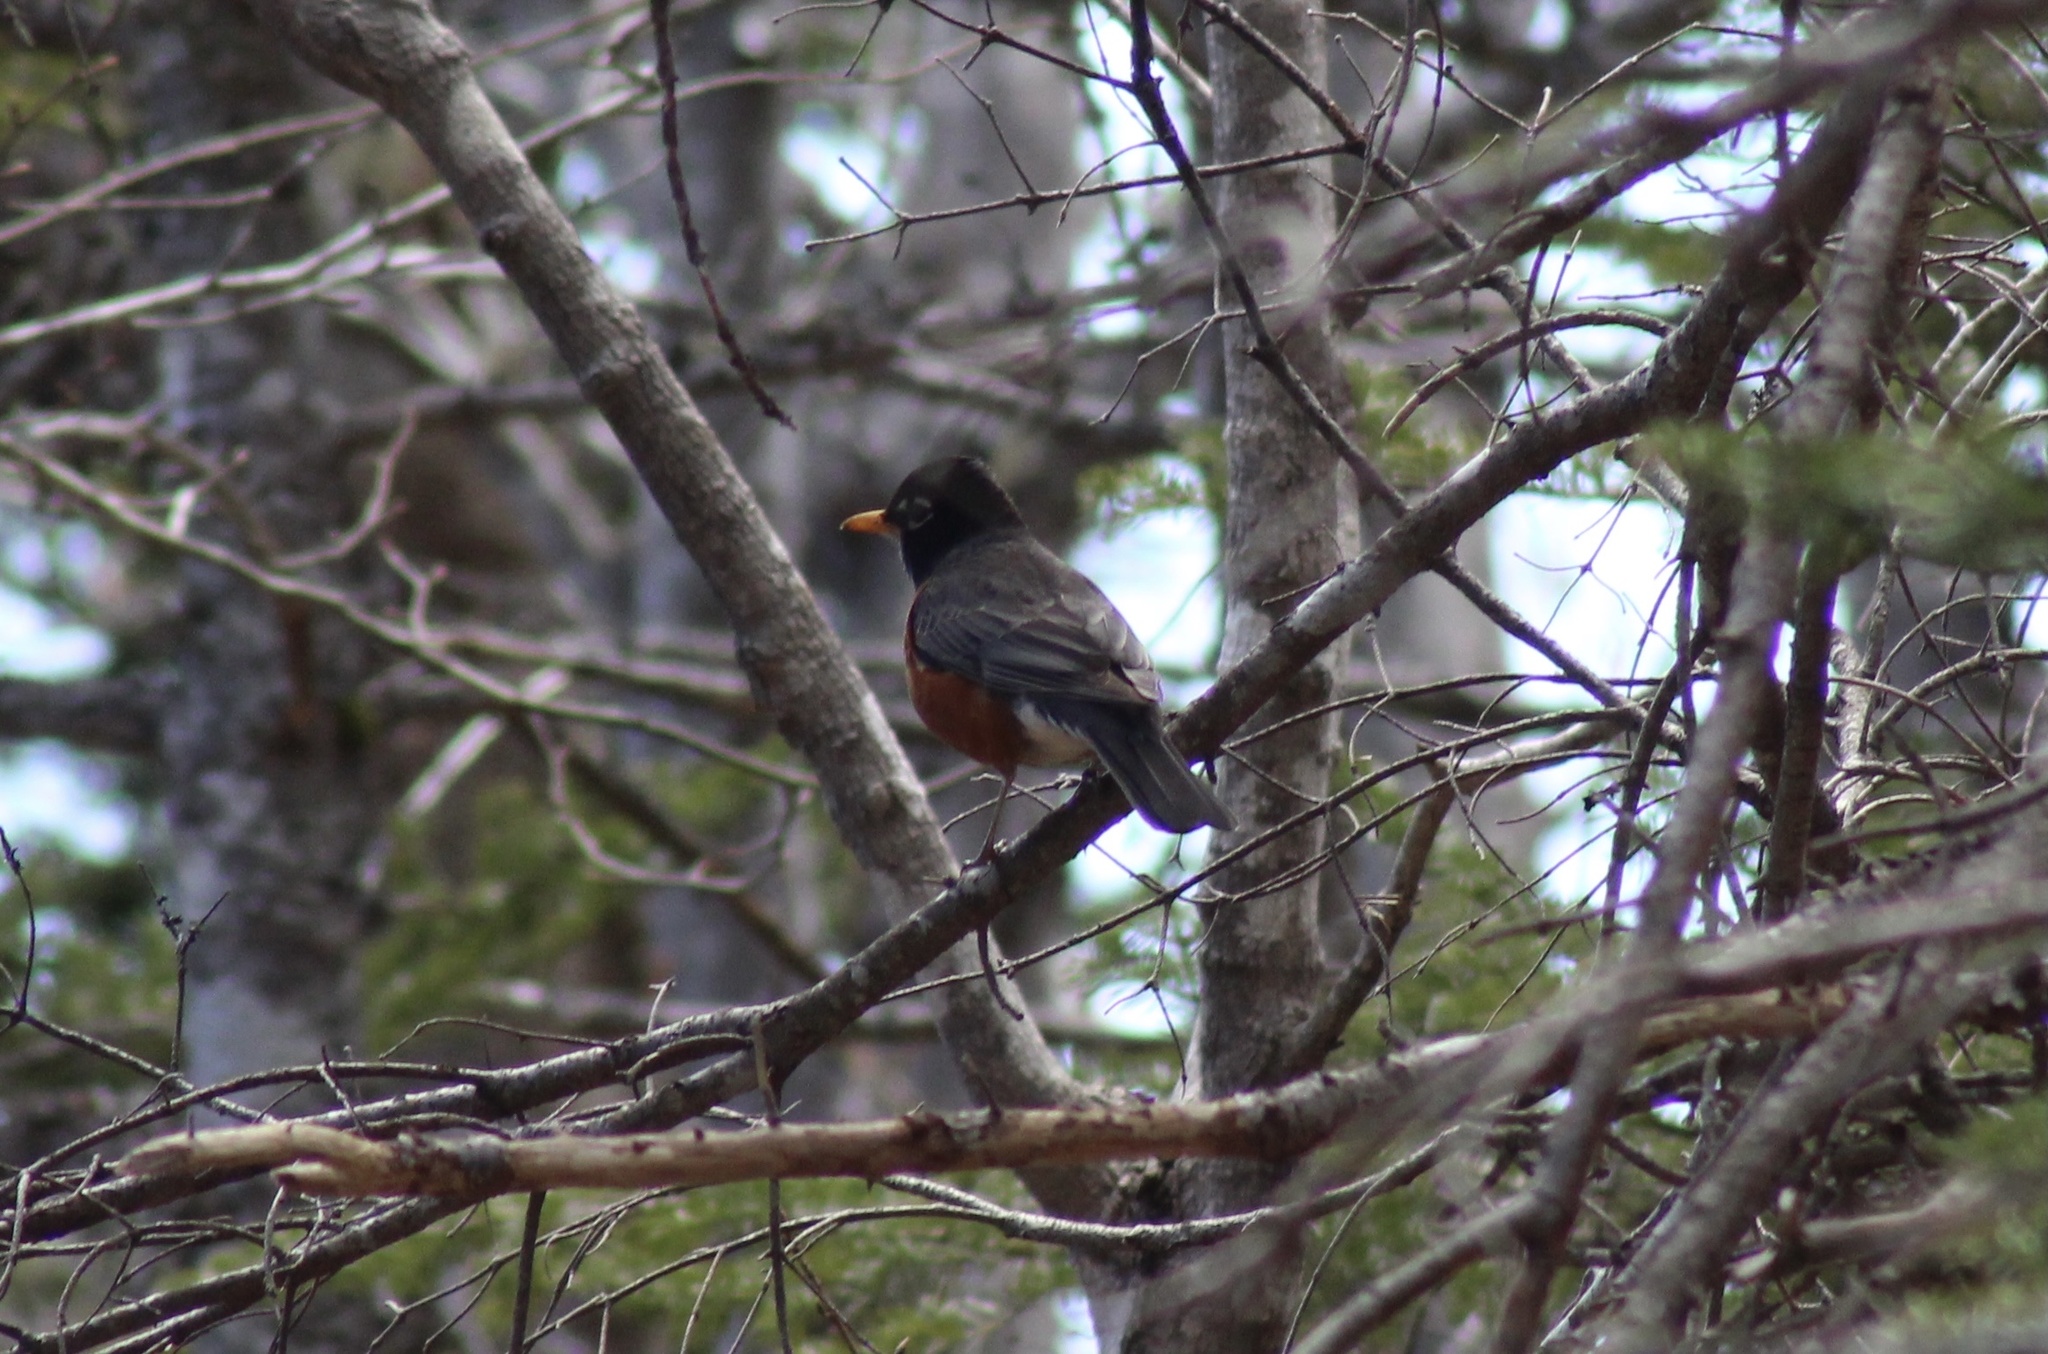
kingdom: Animalia
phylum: Chordata
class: Aves
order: Passeriformes
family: Turdidae
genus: Turdus
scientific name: Turdus migratorius
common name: American robin
